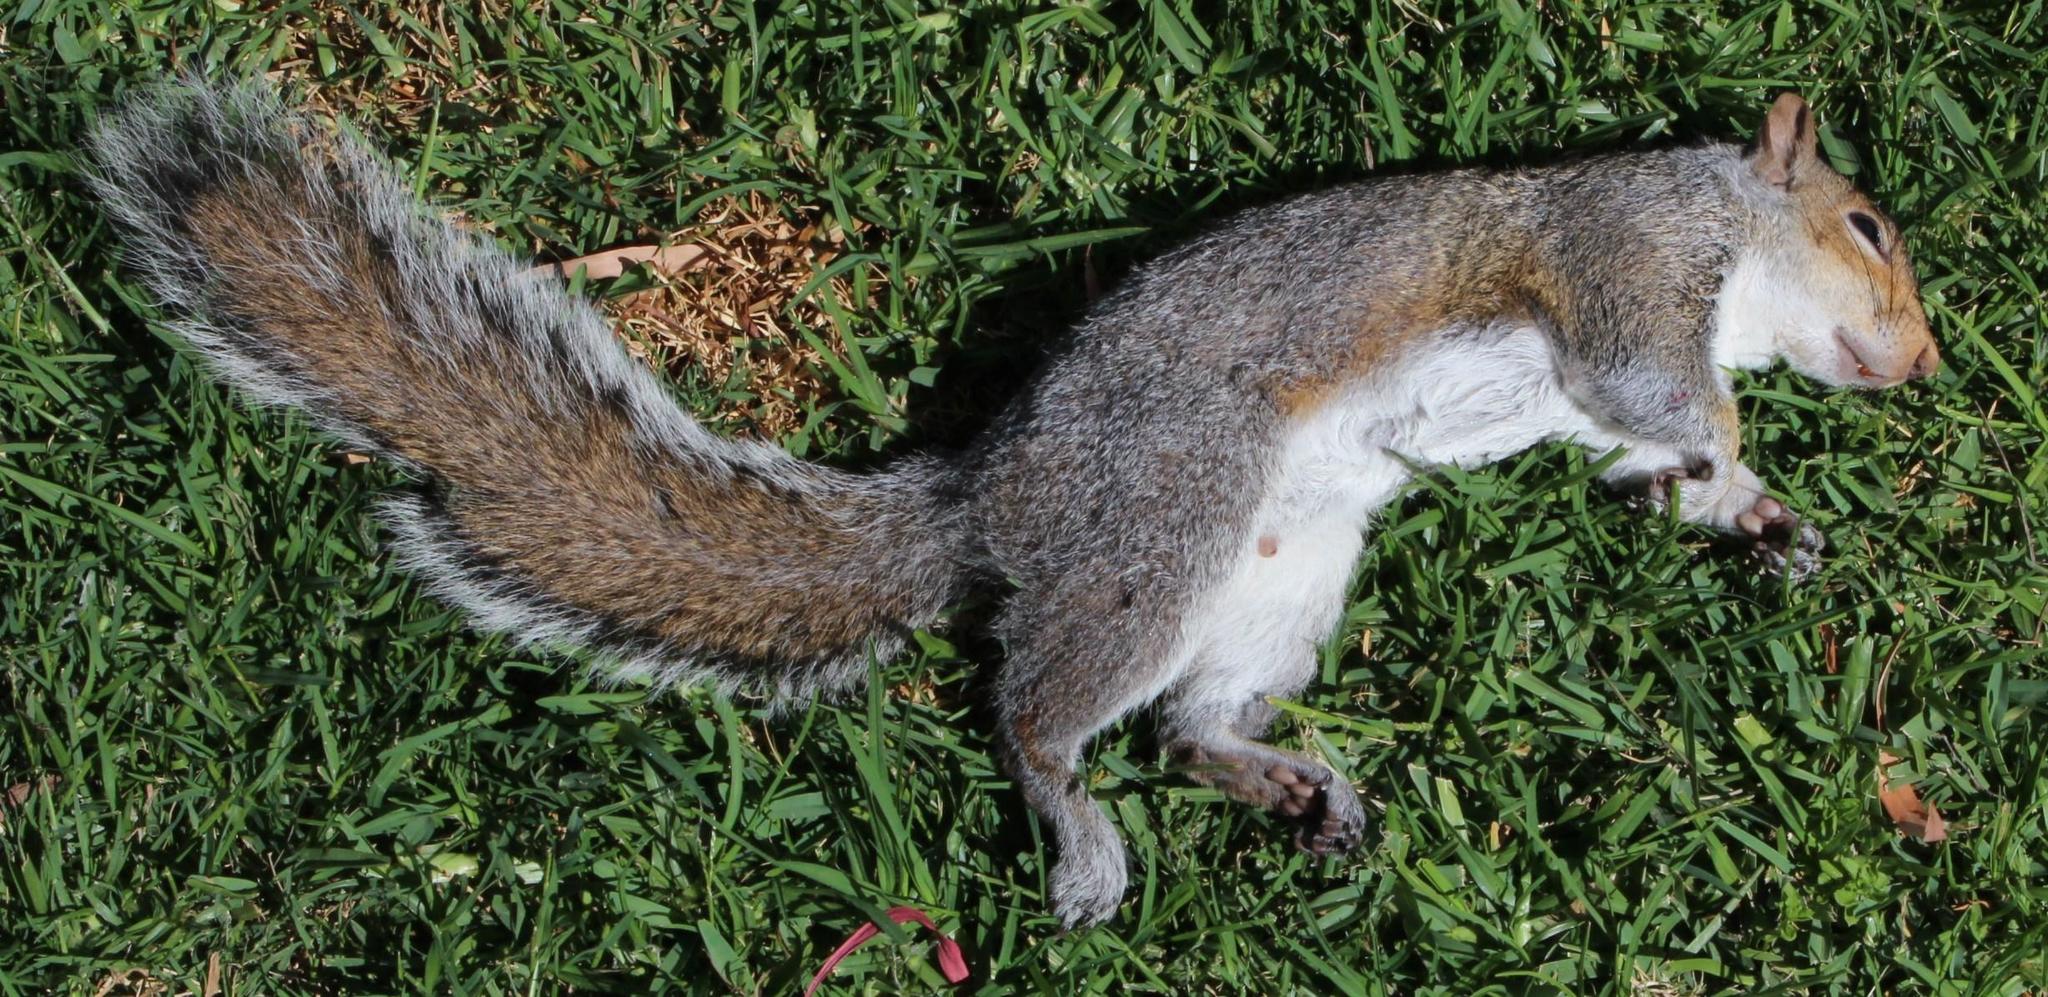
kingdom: Animalia
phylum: Chordata
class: Mammalia
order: Rodentia
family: Sciuridae
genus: Sciurus
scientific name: Sciurus carolinensis
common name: Eastern gray squirrel
